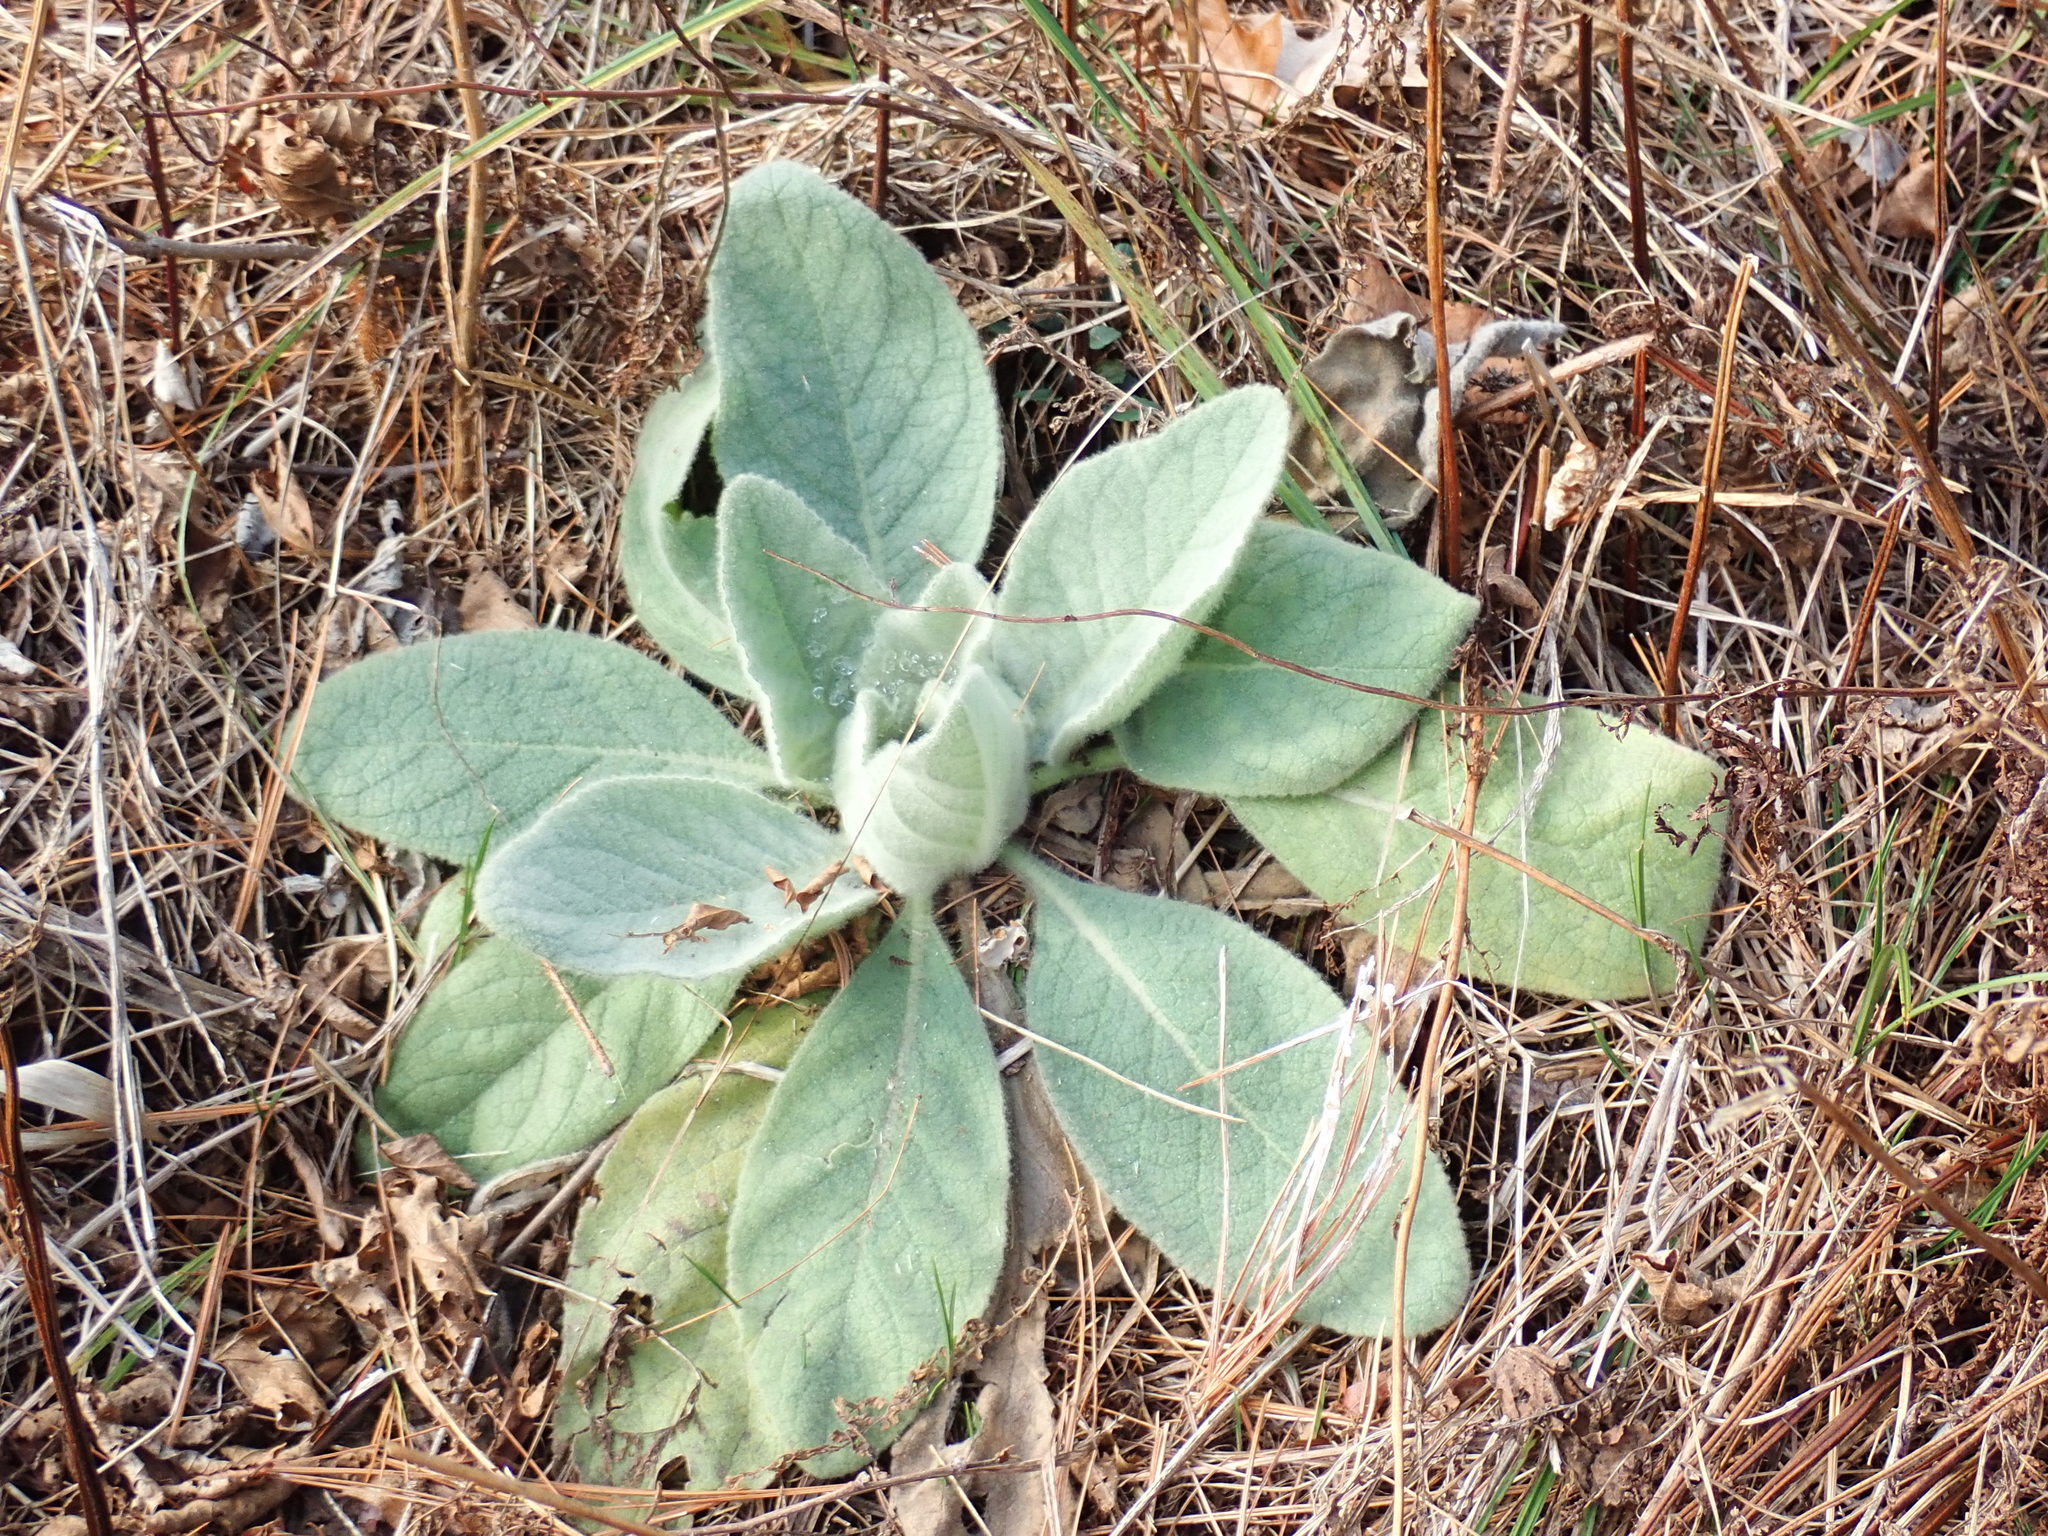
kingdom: Plantae
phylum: Tracheophyta
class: Magnoliopsida
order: Lamiales
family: Scrophulariaceae
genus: Verbascum
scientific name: Verbascum thapsus
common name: Common mullein
